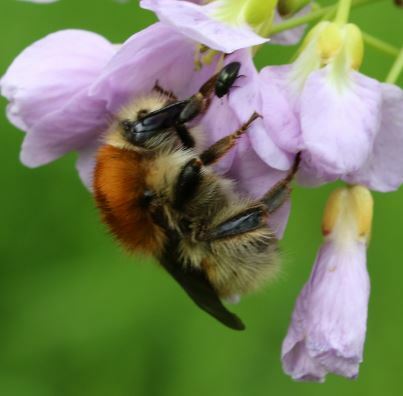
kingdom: Animalia
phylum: Arthropoda
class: Insecta
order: Hymenoptera
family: Apidae
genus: Bombus
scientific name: Bombus humilis
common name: Brown-banded carder-bee
